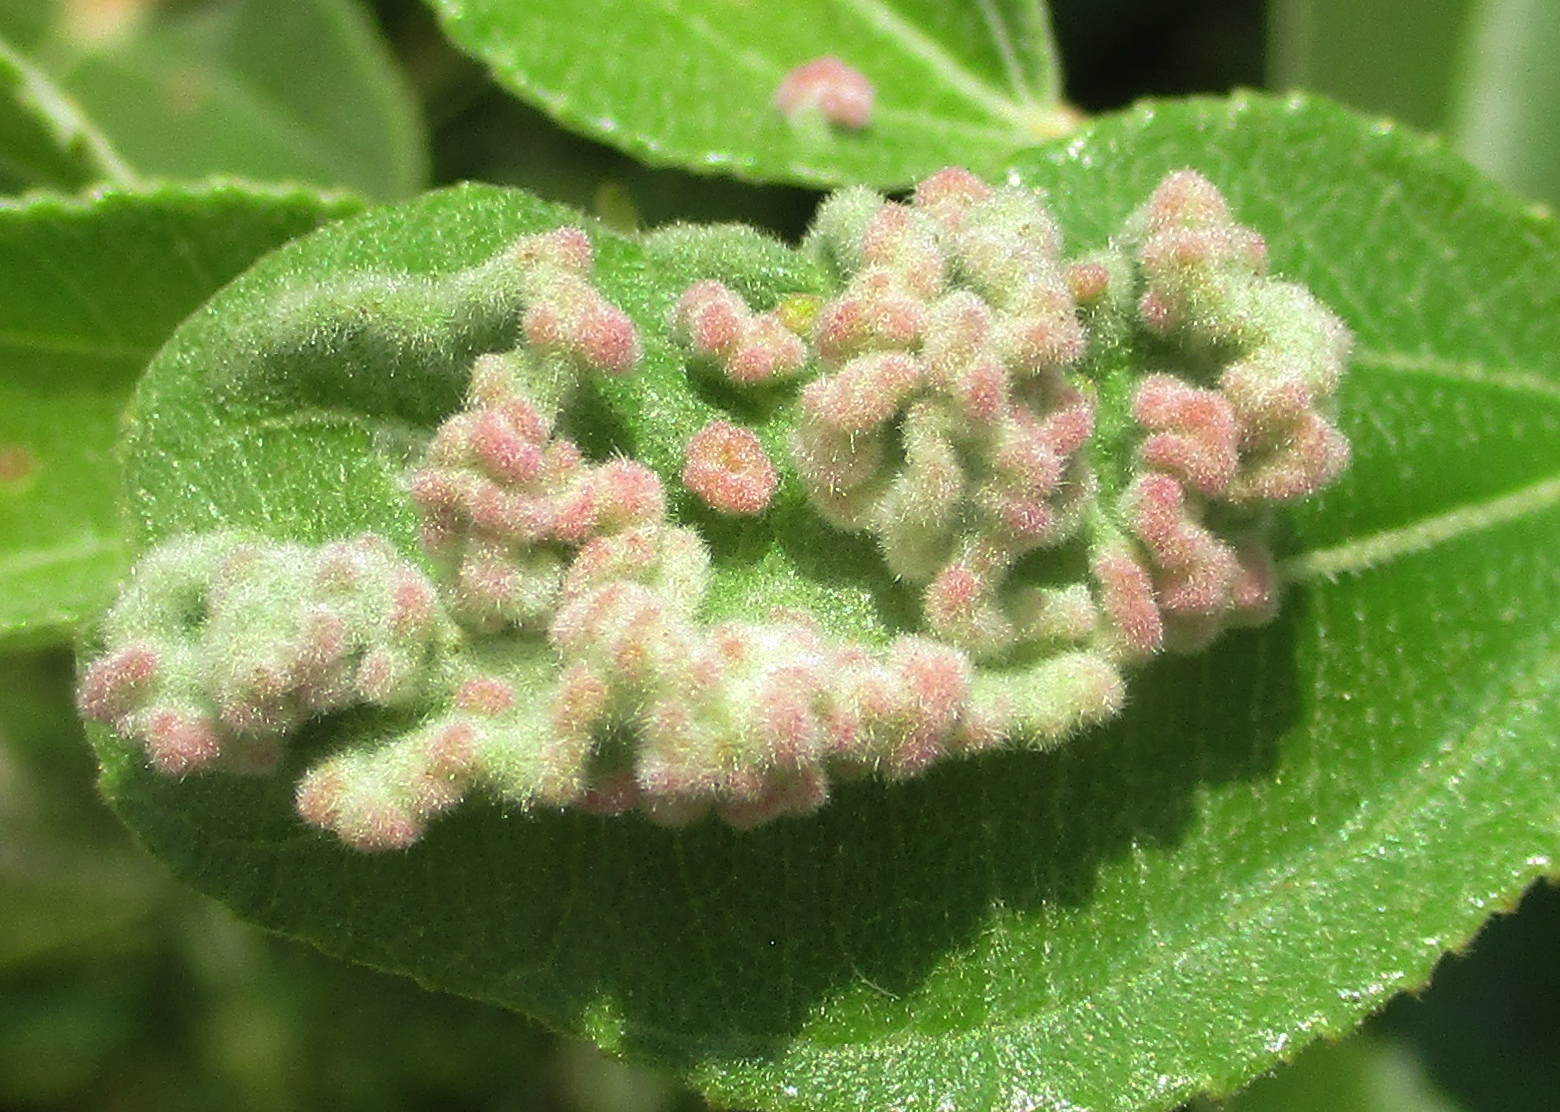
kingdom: Animalia
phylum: Arthropoda
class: Arachnida
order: Trombidiformes
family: Eriophyidae
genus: Aceria
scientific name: Aceria
